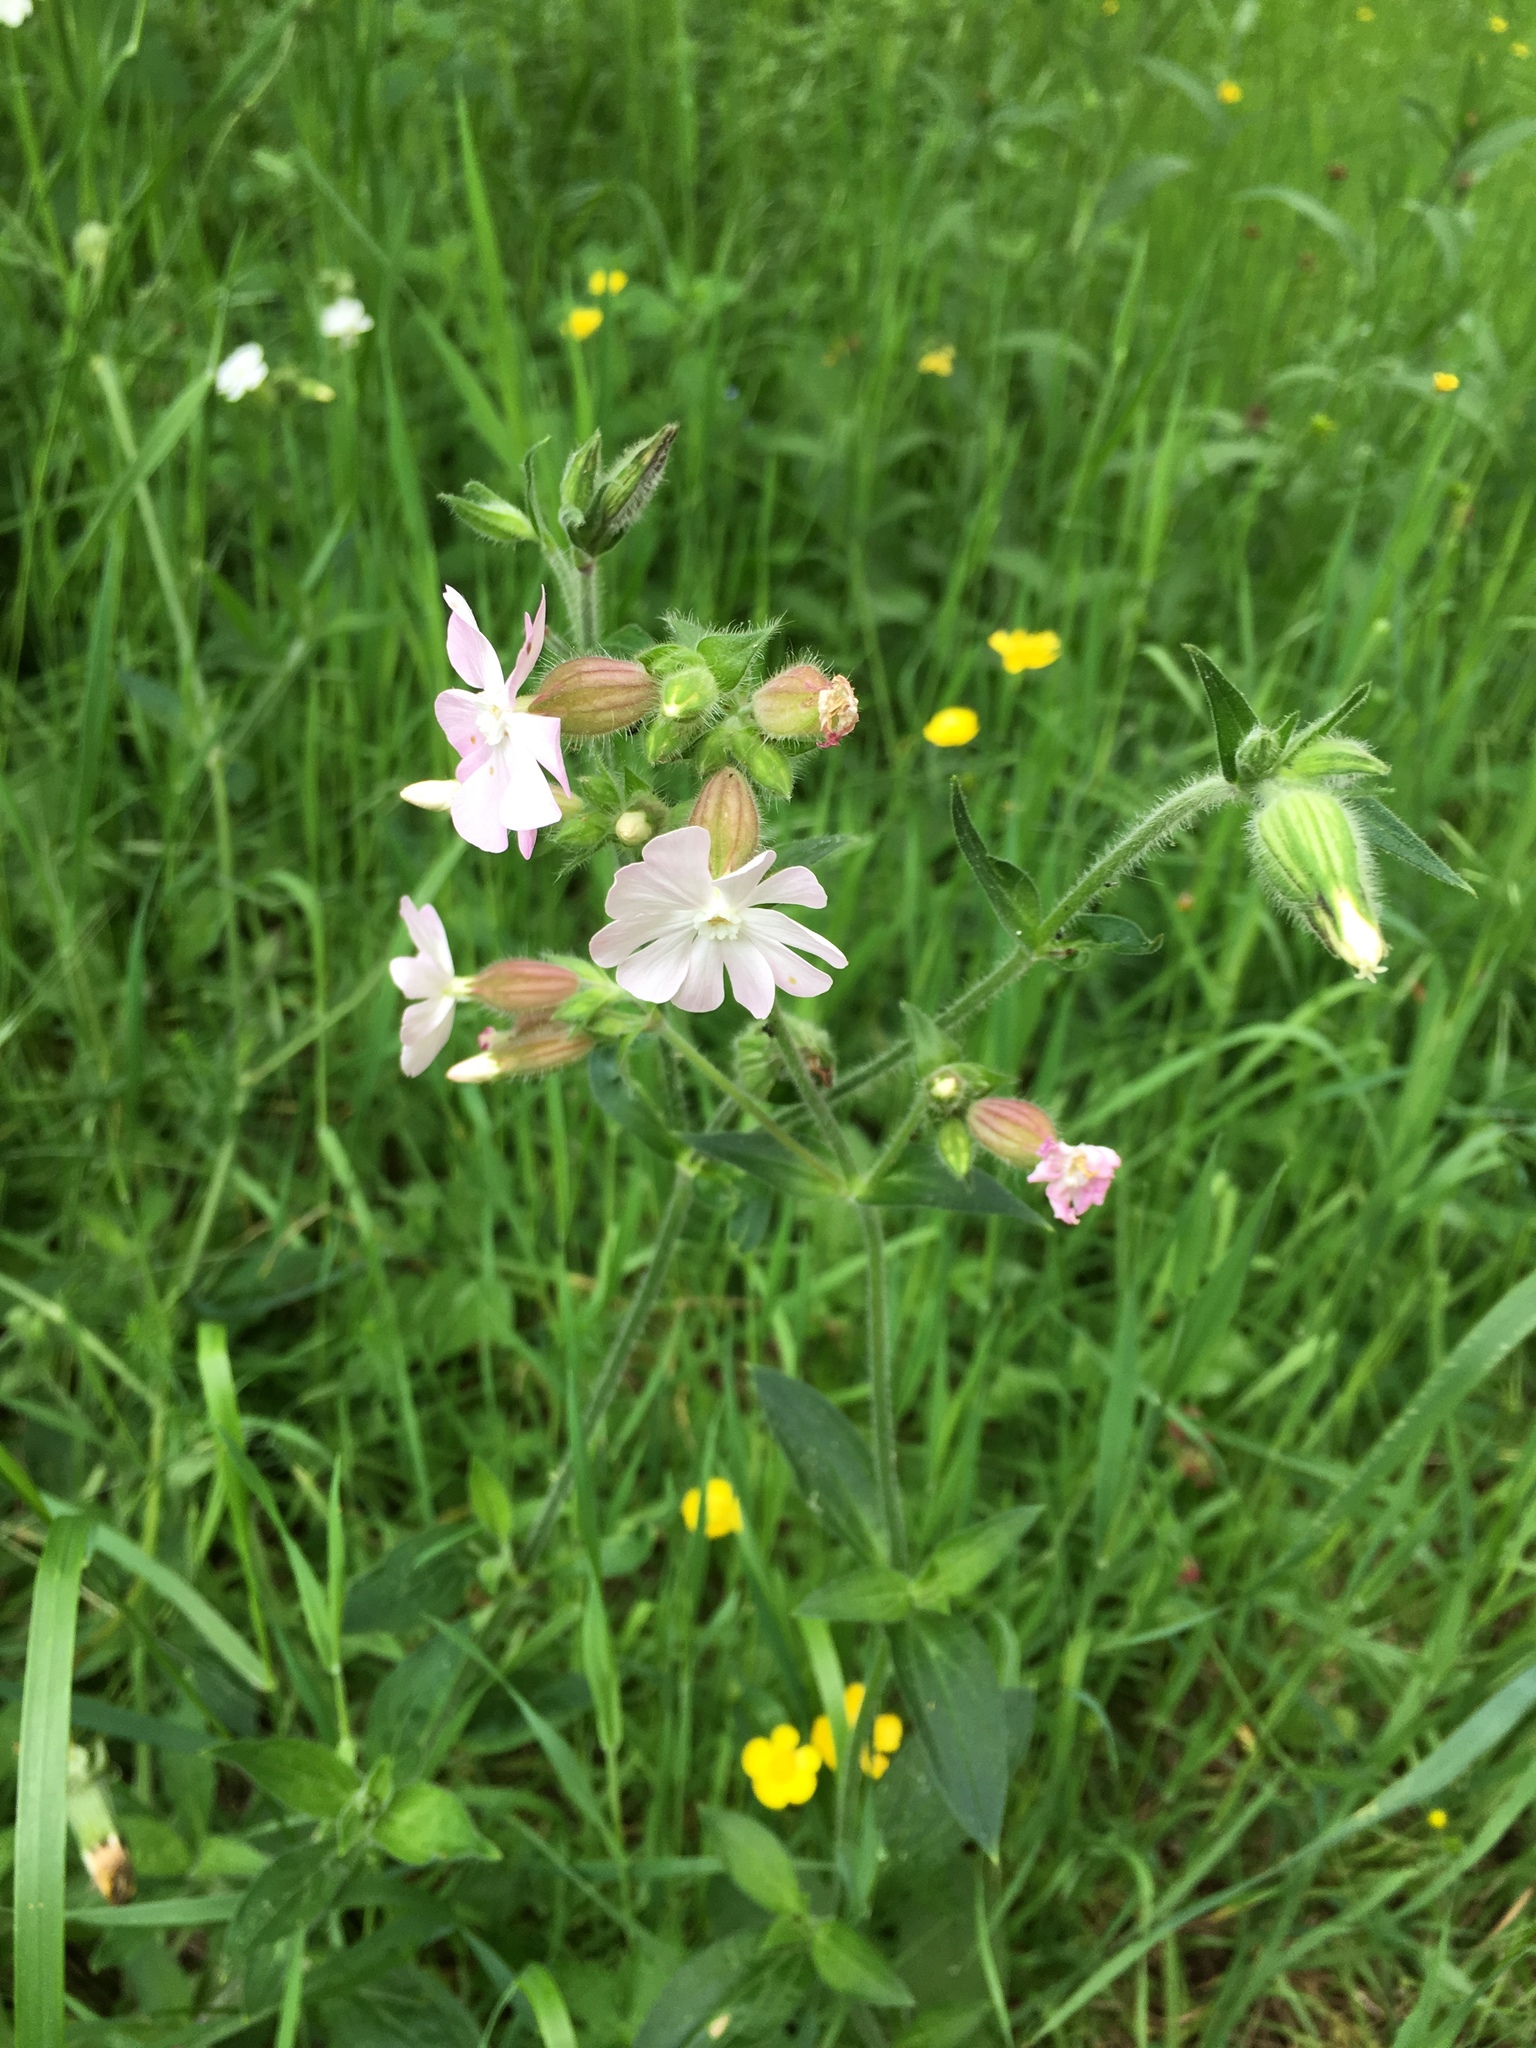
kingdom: Plantae
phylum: Tracheophyta
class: Magnoliopsida
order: Caryophyllales
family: Caryophyllaceae
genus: Silene
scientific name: Silene latifolia
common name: White campion
